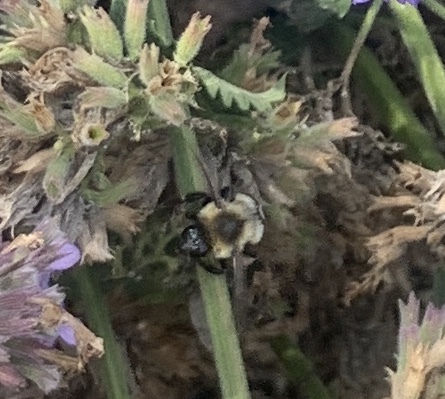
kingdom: Animalia
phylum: Arthropoda
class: Insecta
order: Hymenoptera
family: Apidae
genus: Bombus
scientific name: Bombus impatiens
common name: Common eastern bumble bee
